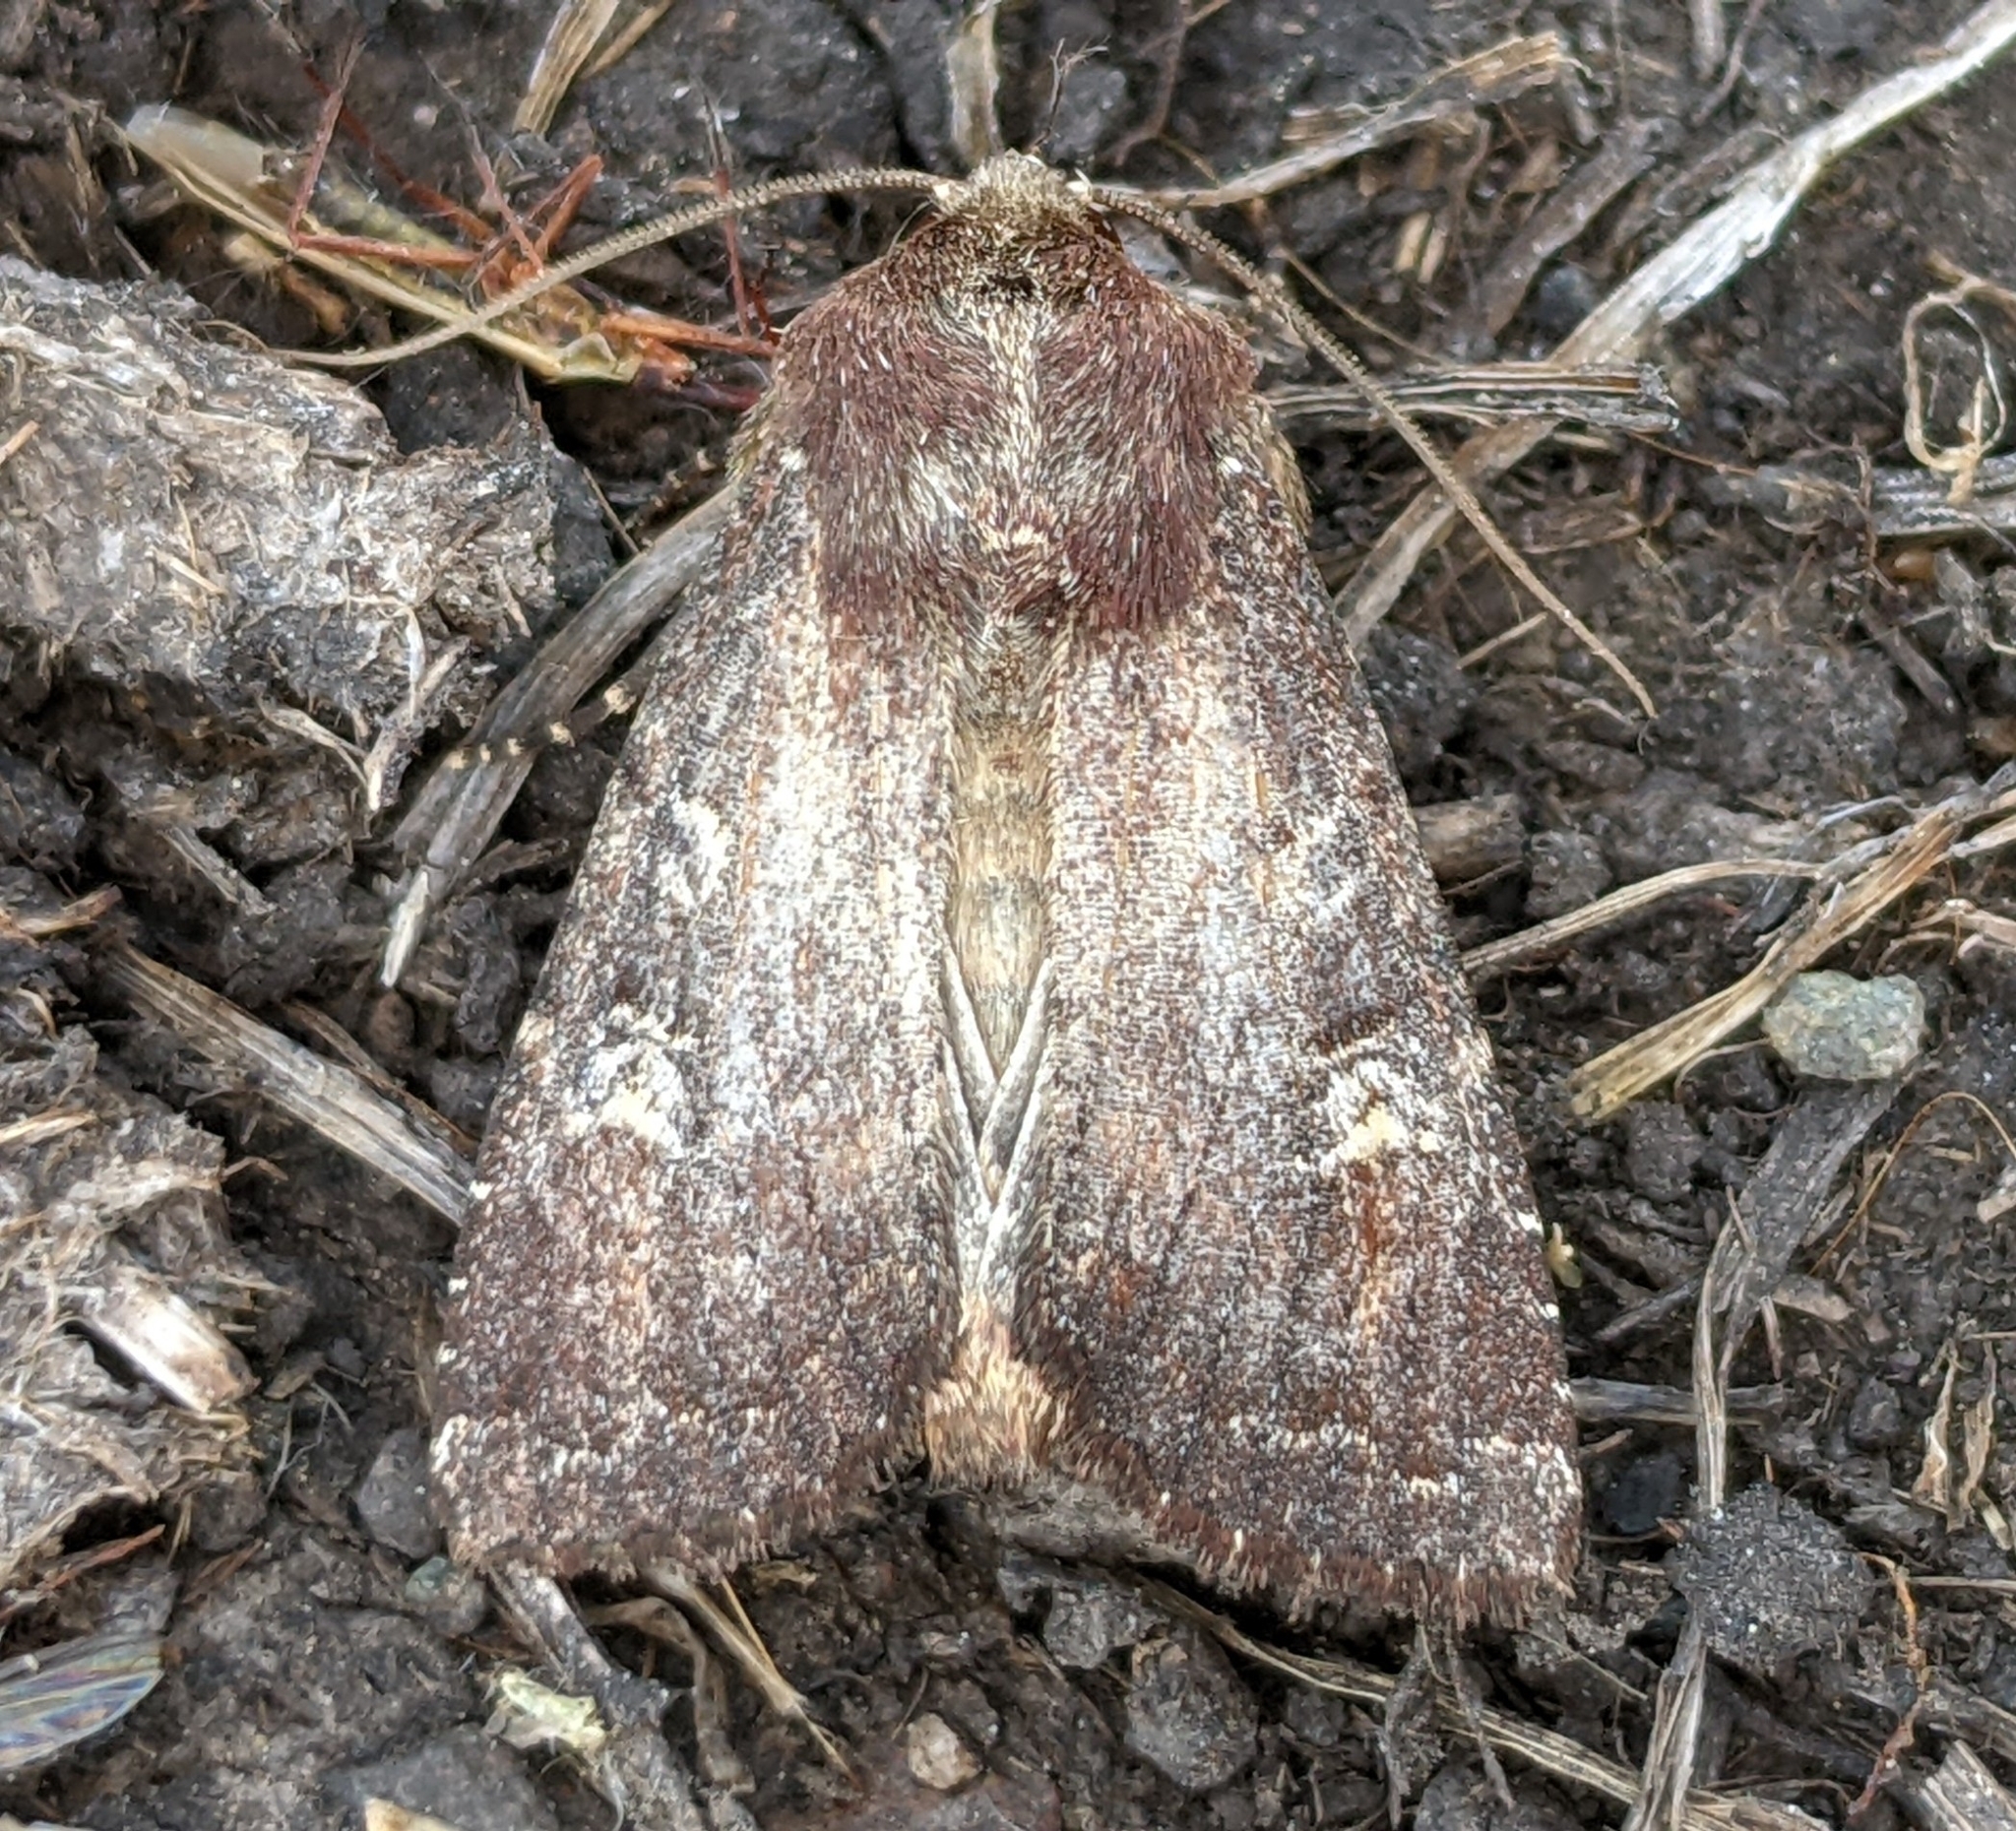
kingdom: Animalia
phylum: Arthropoda
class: Insecta
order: Lepidoptera
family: Noctuidae
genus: Apamea
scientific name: Apamea cogitata
